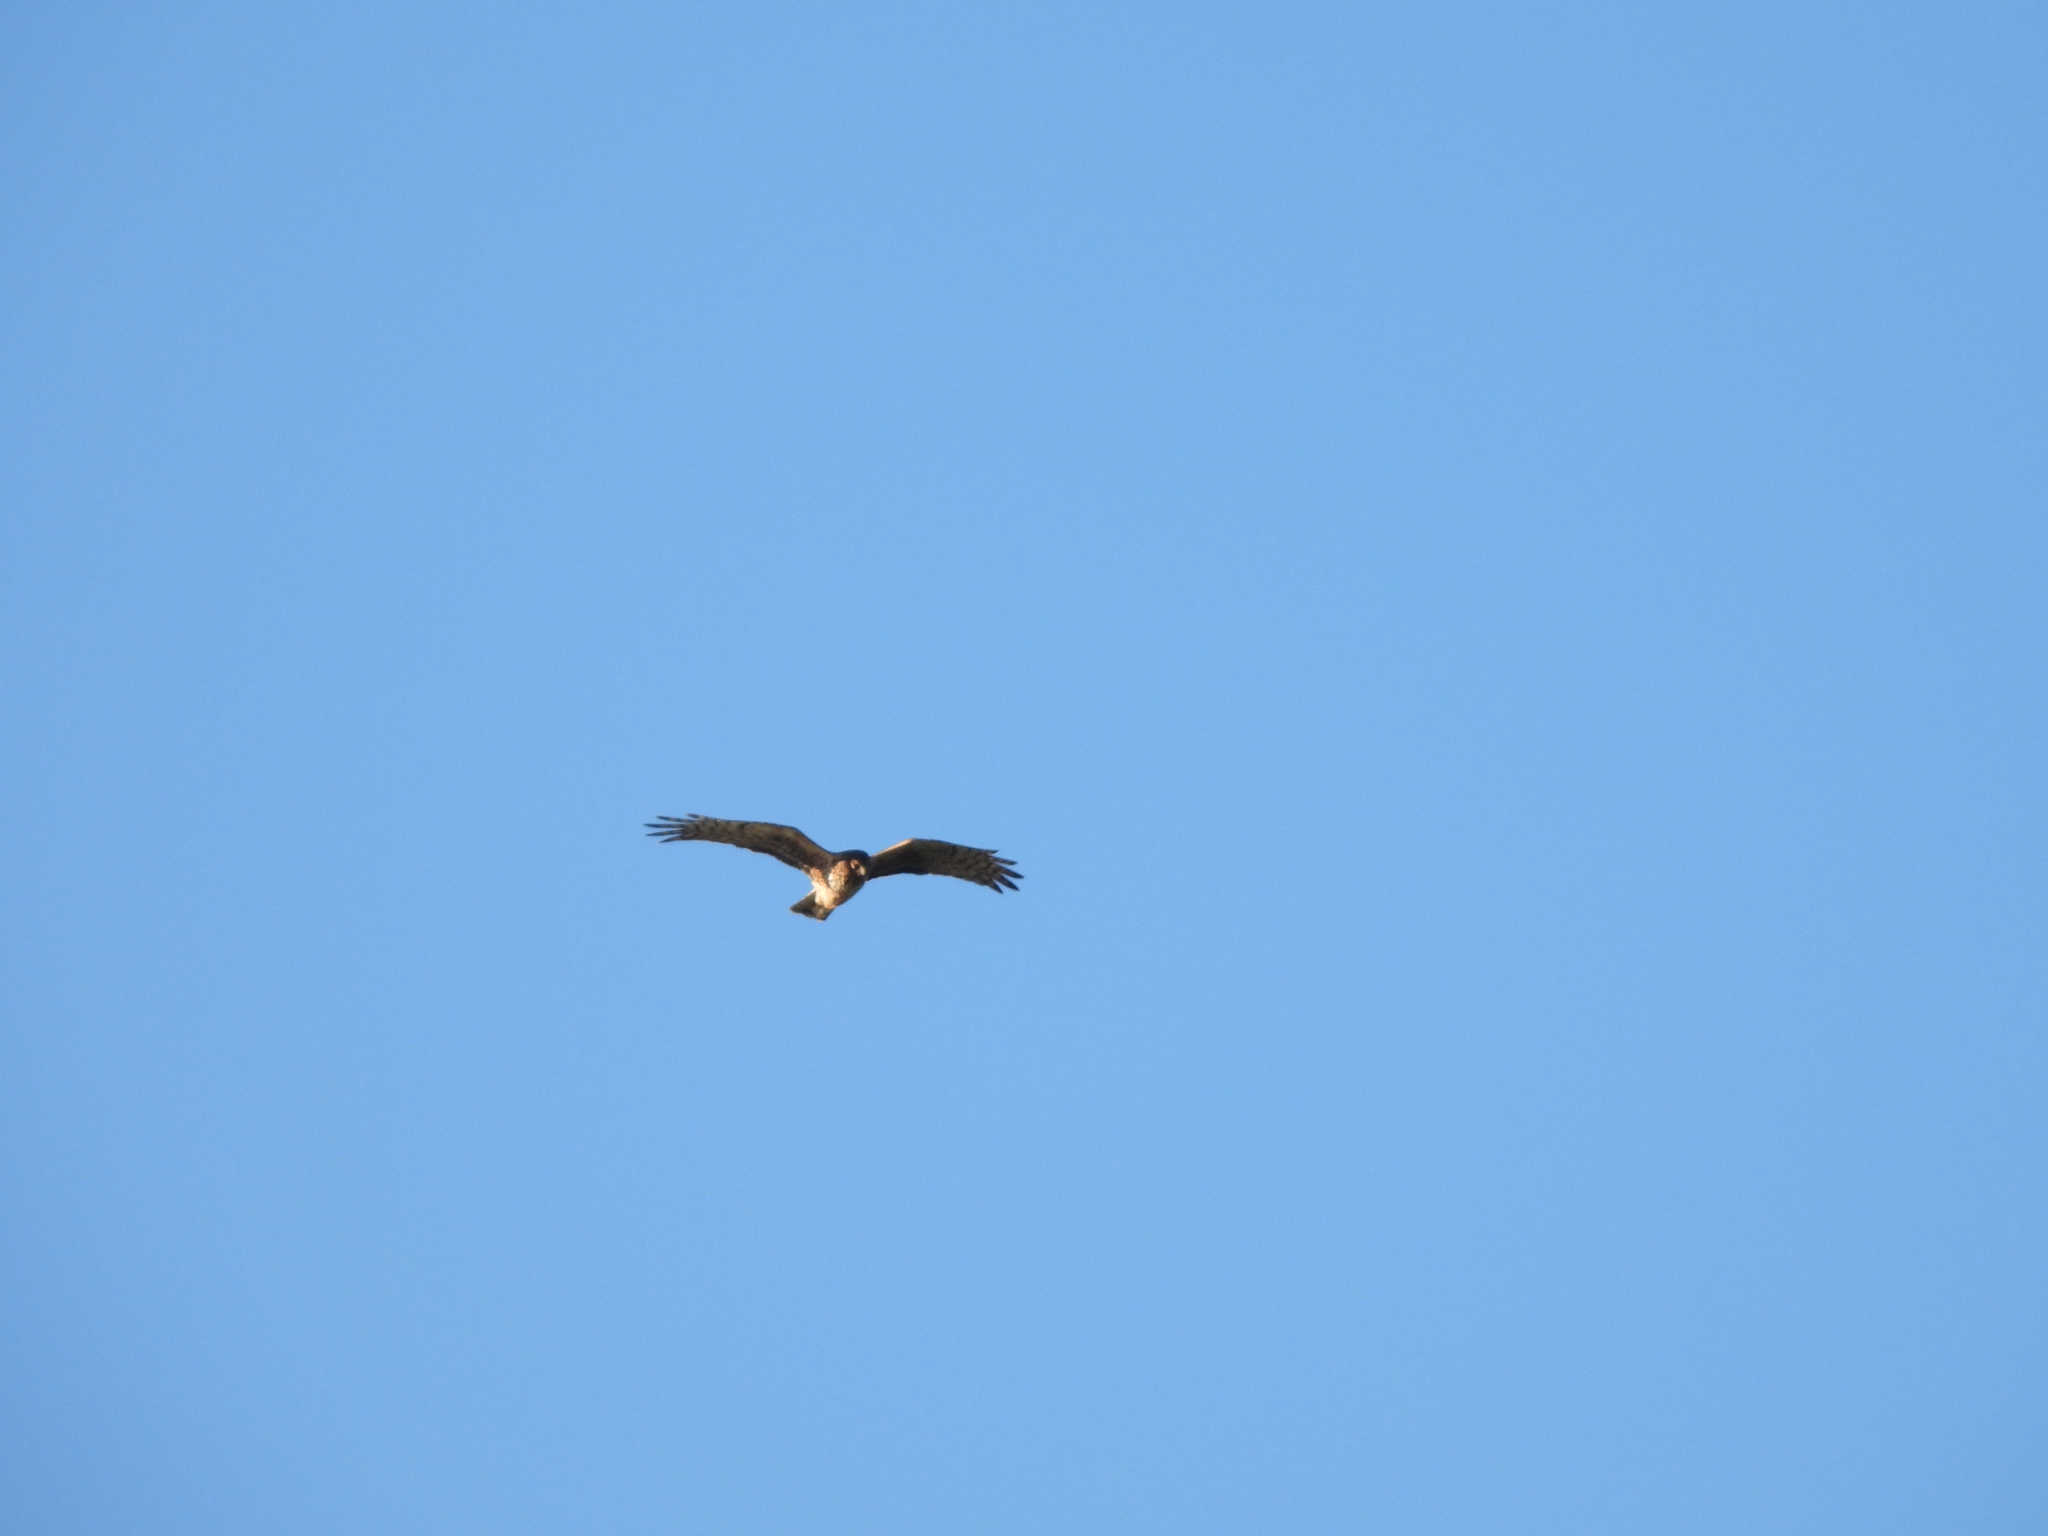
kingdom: Animalia
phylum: Chordata
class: Aves
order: Accipitriformes
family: Accipitridae
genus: Circus
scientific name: Circus cyaneus
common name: Hen harrier
